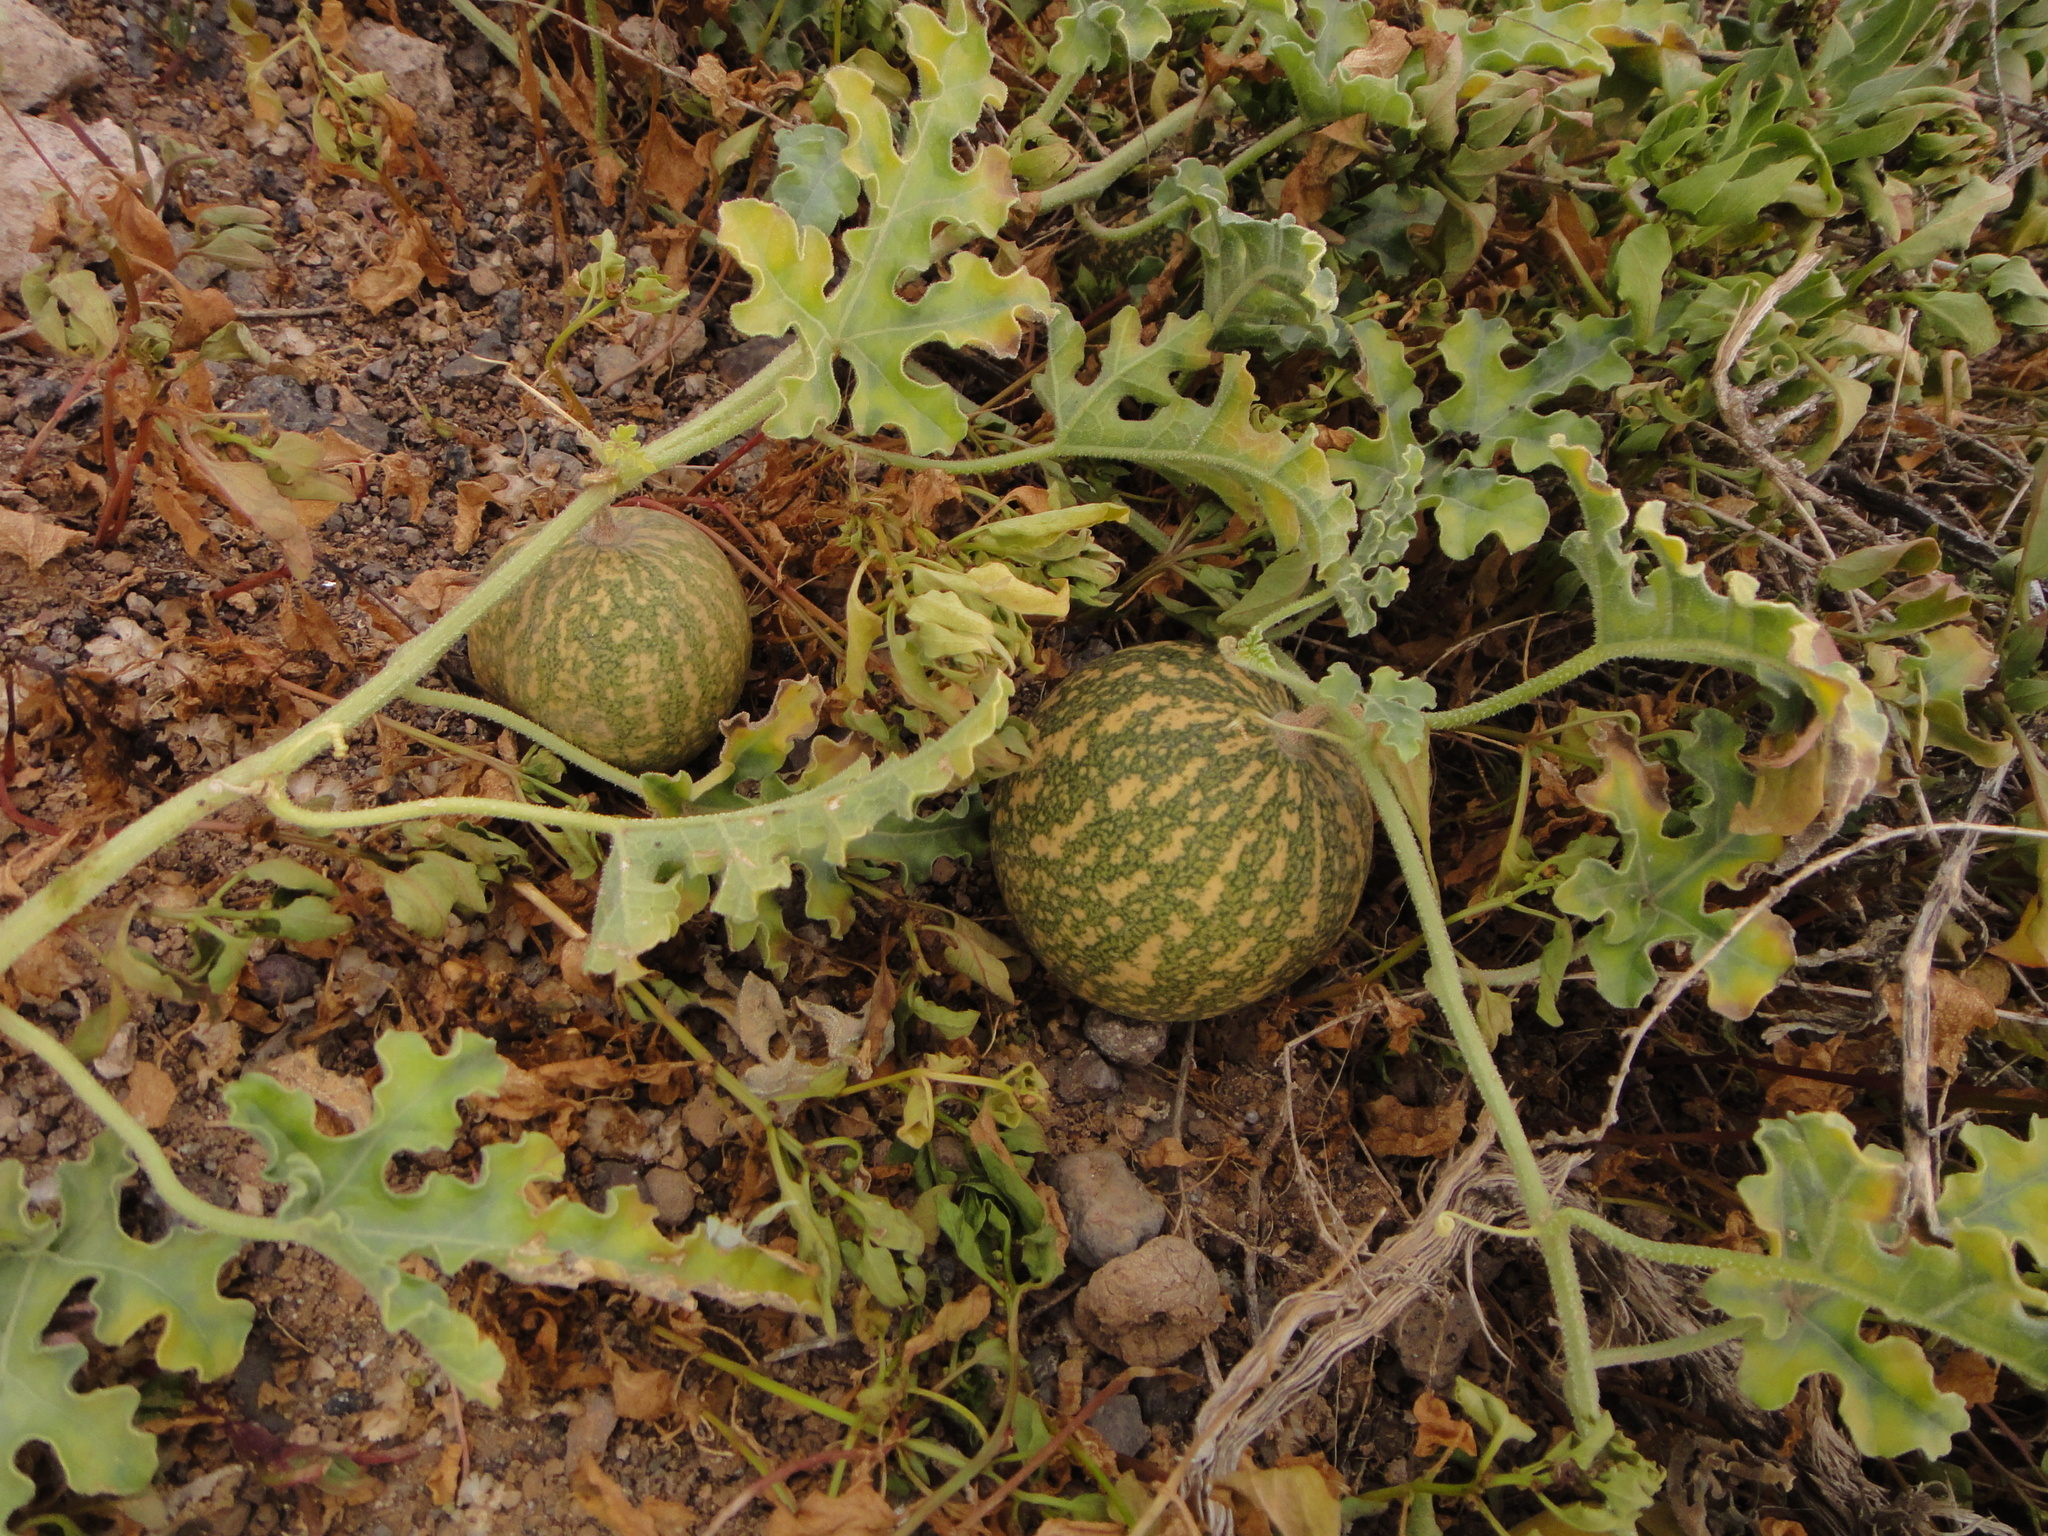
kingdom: Plantae
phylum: Tracheophyta
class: Magnoliopsida
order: Cucurbitales
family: Cucurbitaceae
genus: Citrullus
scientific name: Citrullus colocynthis
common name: Colocynth
